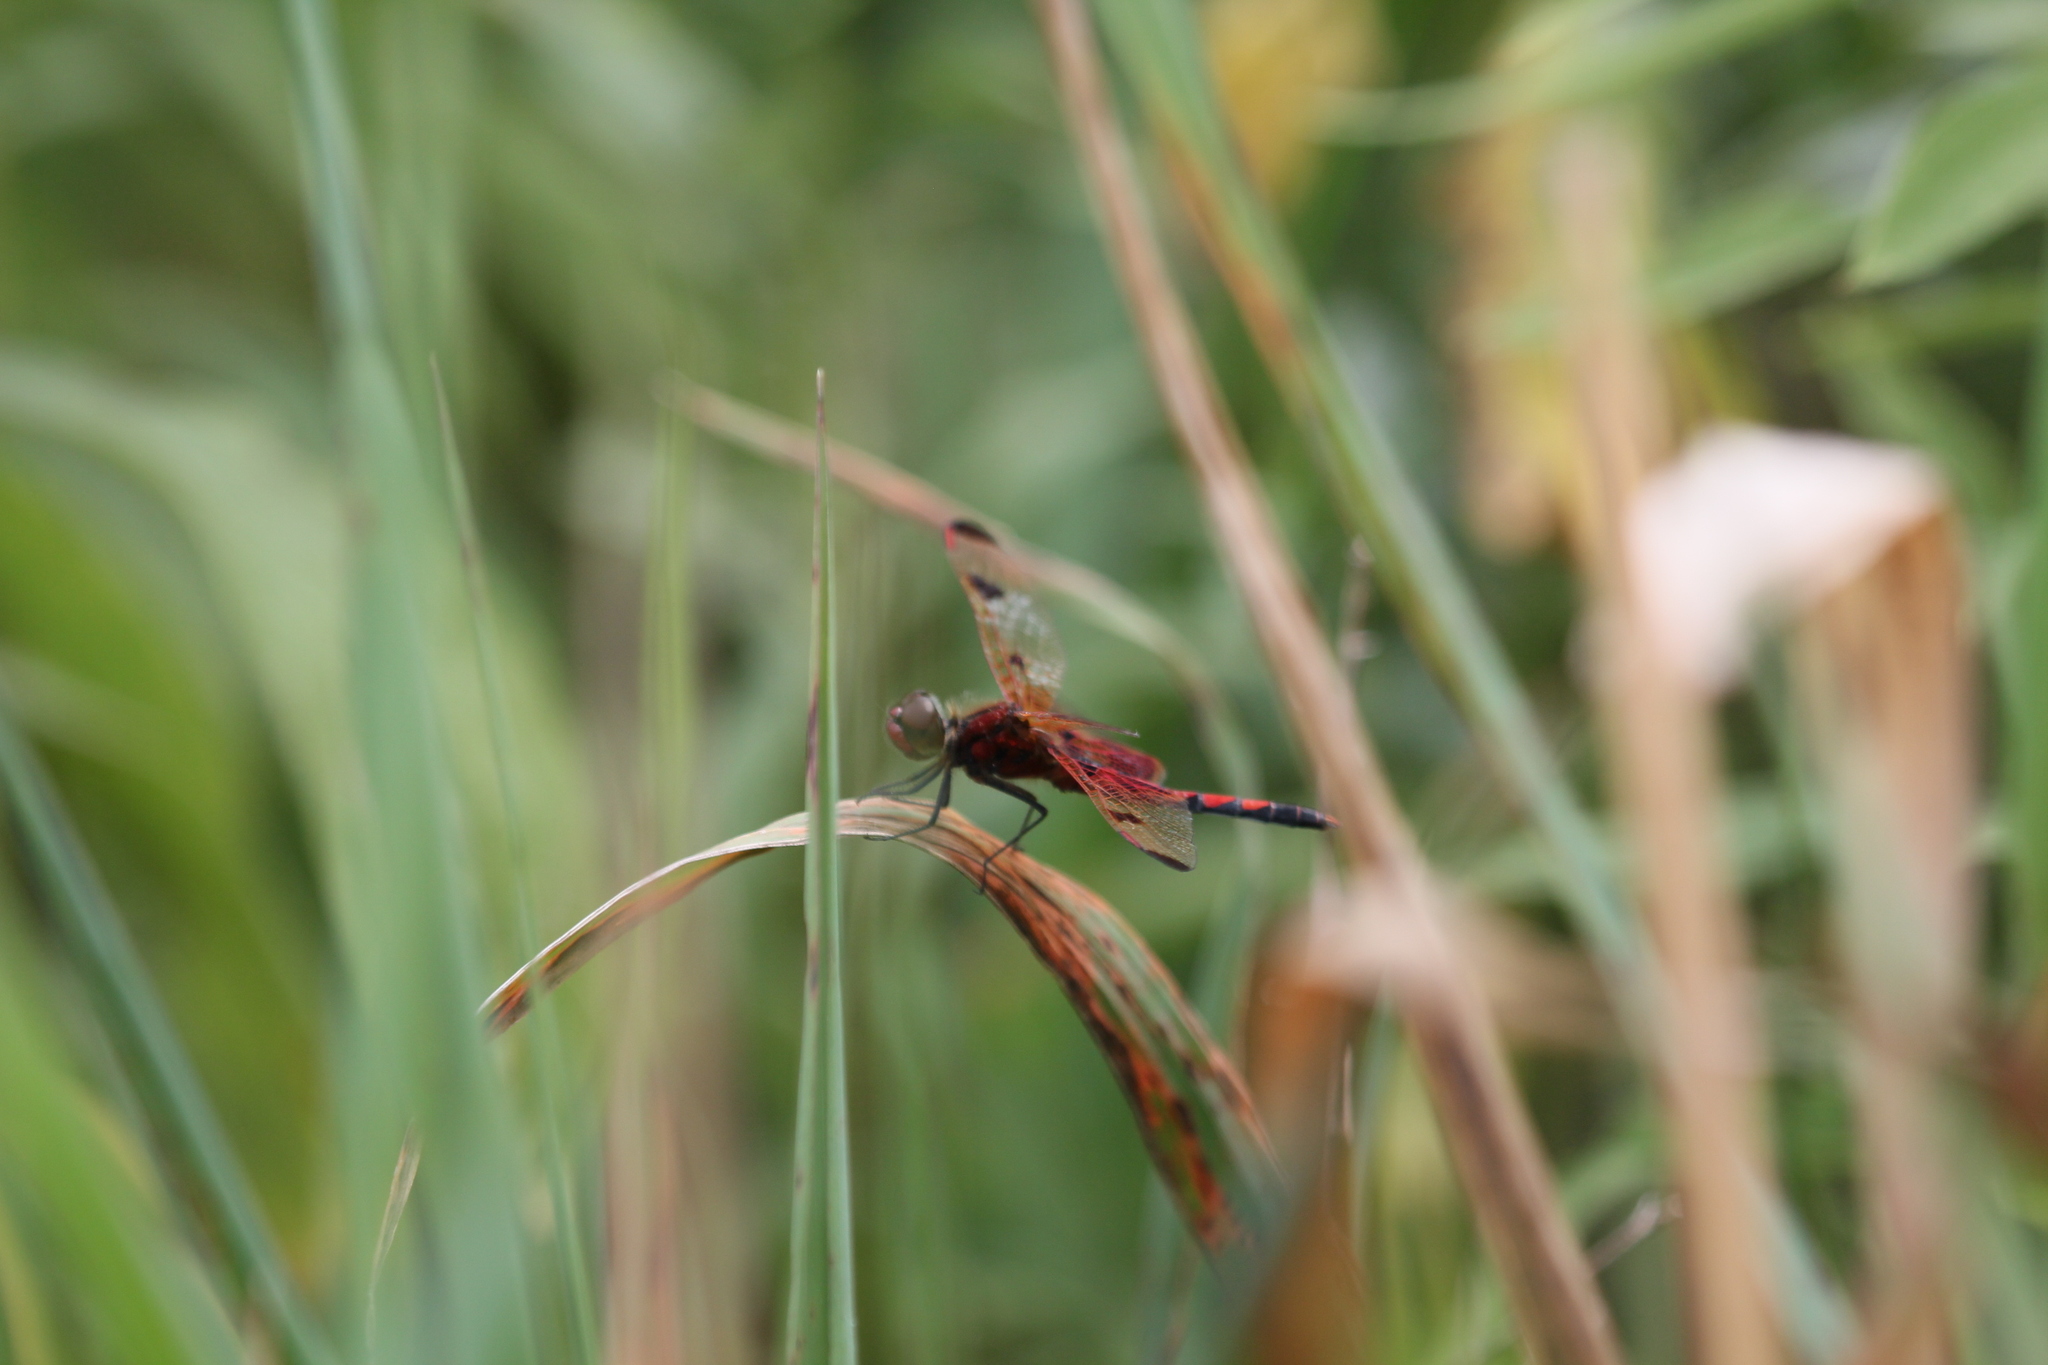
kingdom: Animalia
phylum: Arthropoda
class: Insecta
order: Odonata
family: Libellulidae
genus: Celithemis
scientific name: Celithemis elisa
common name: Calico pennant
